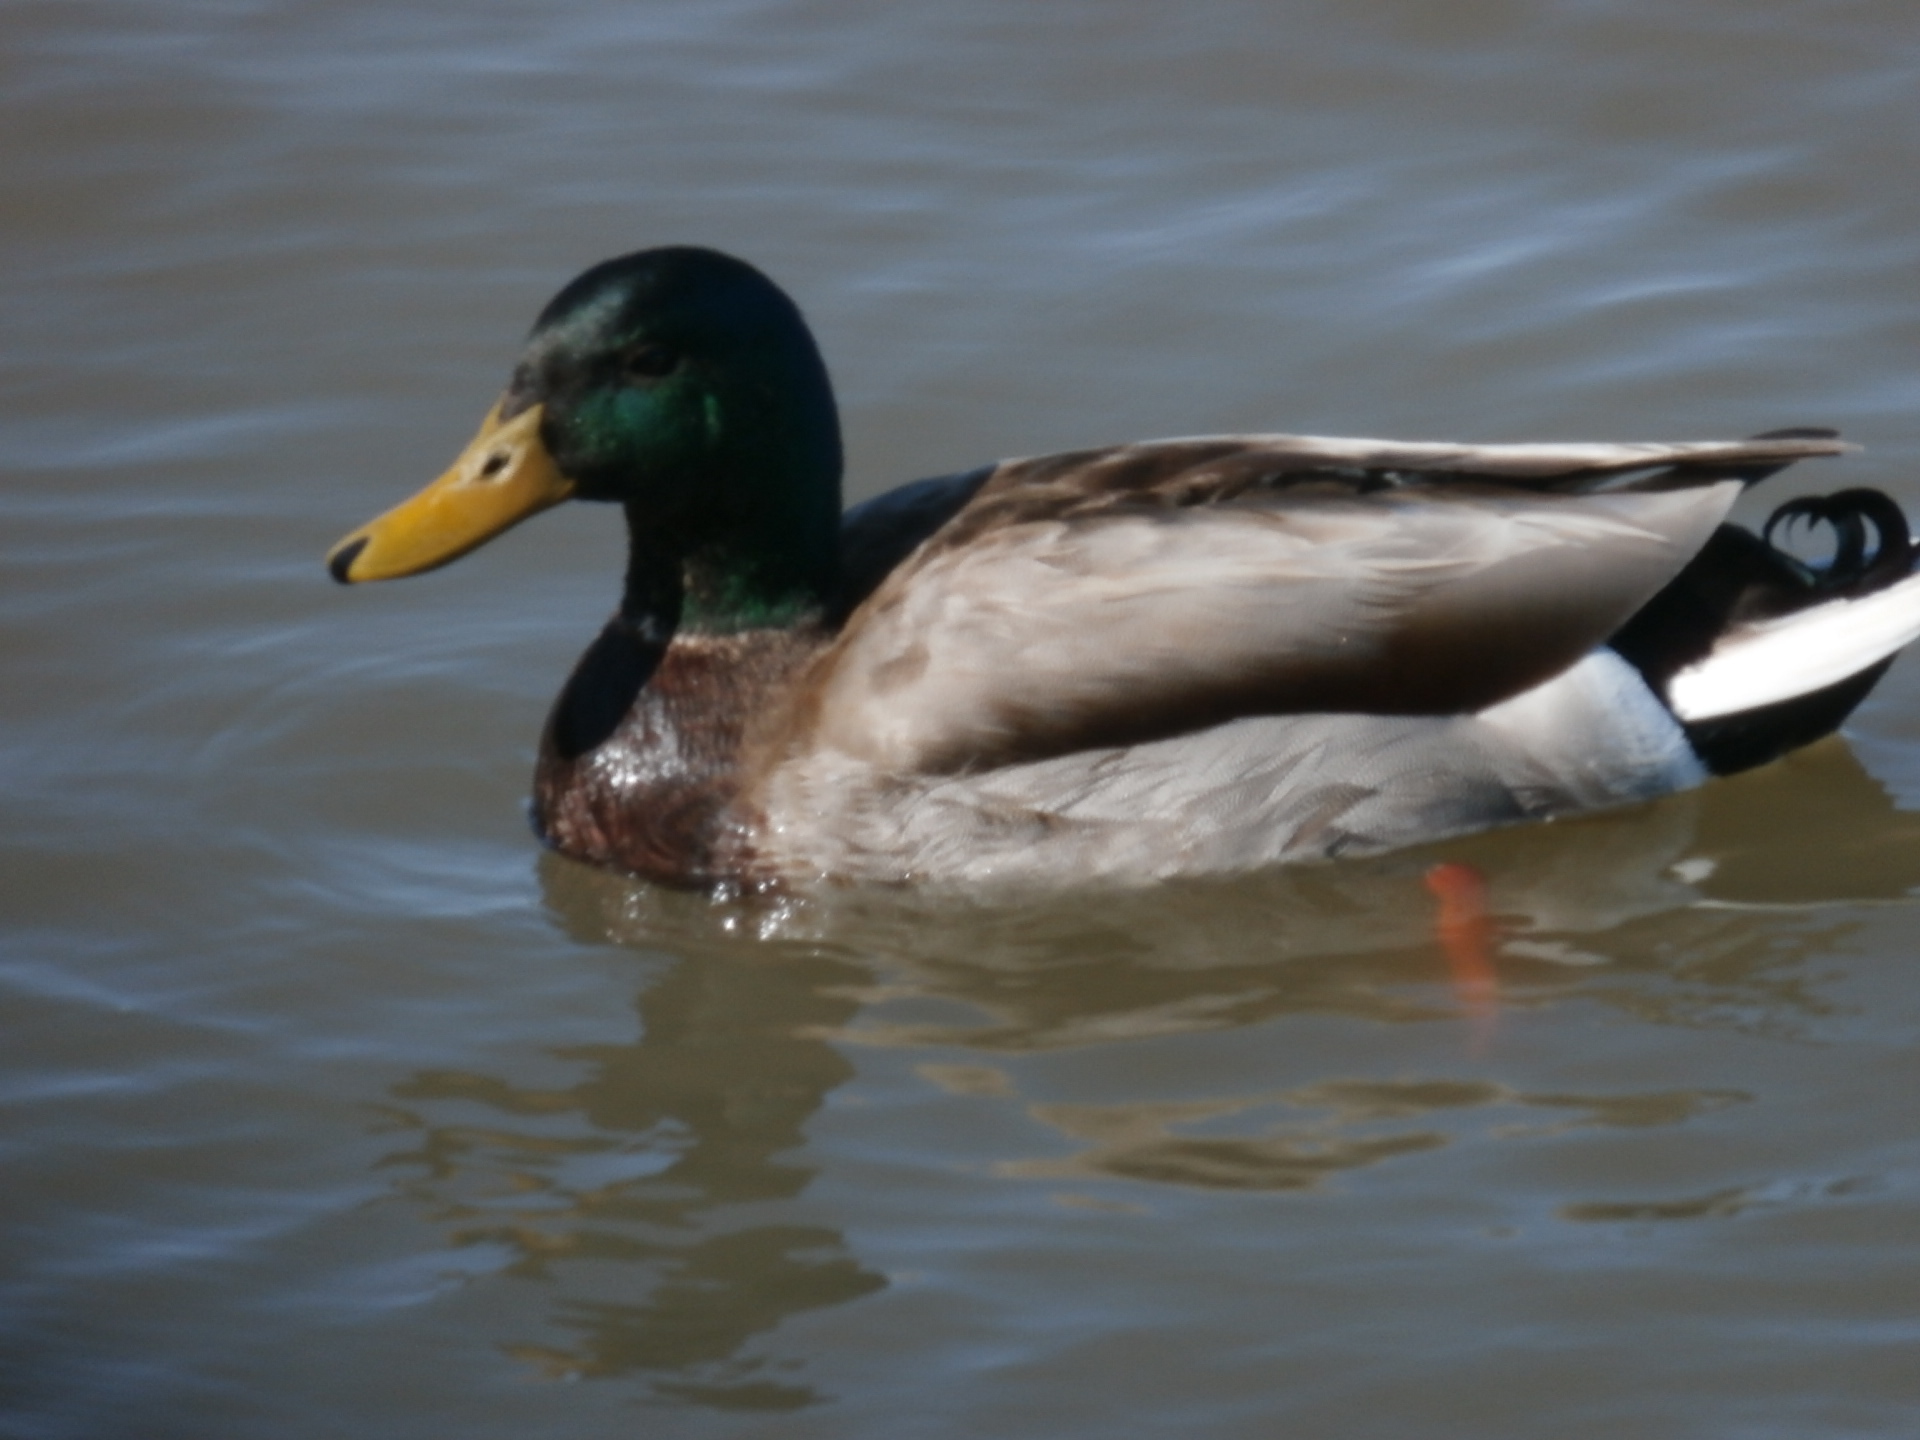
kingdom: Animalia
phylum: Chordata
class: Aves
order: Anseriformes
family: Anatidae
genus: Anas
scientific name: Anas platyrhynchos
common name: Mallard
